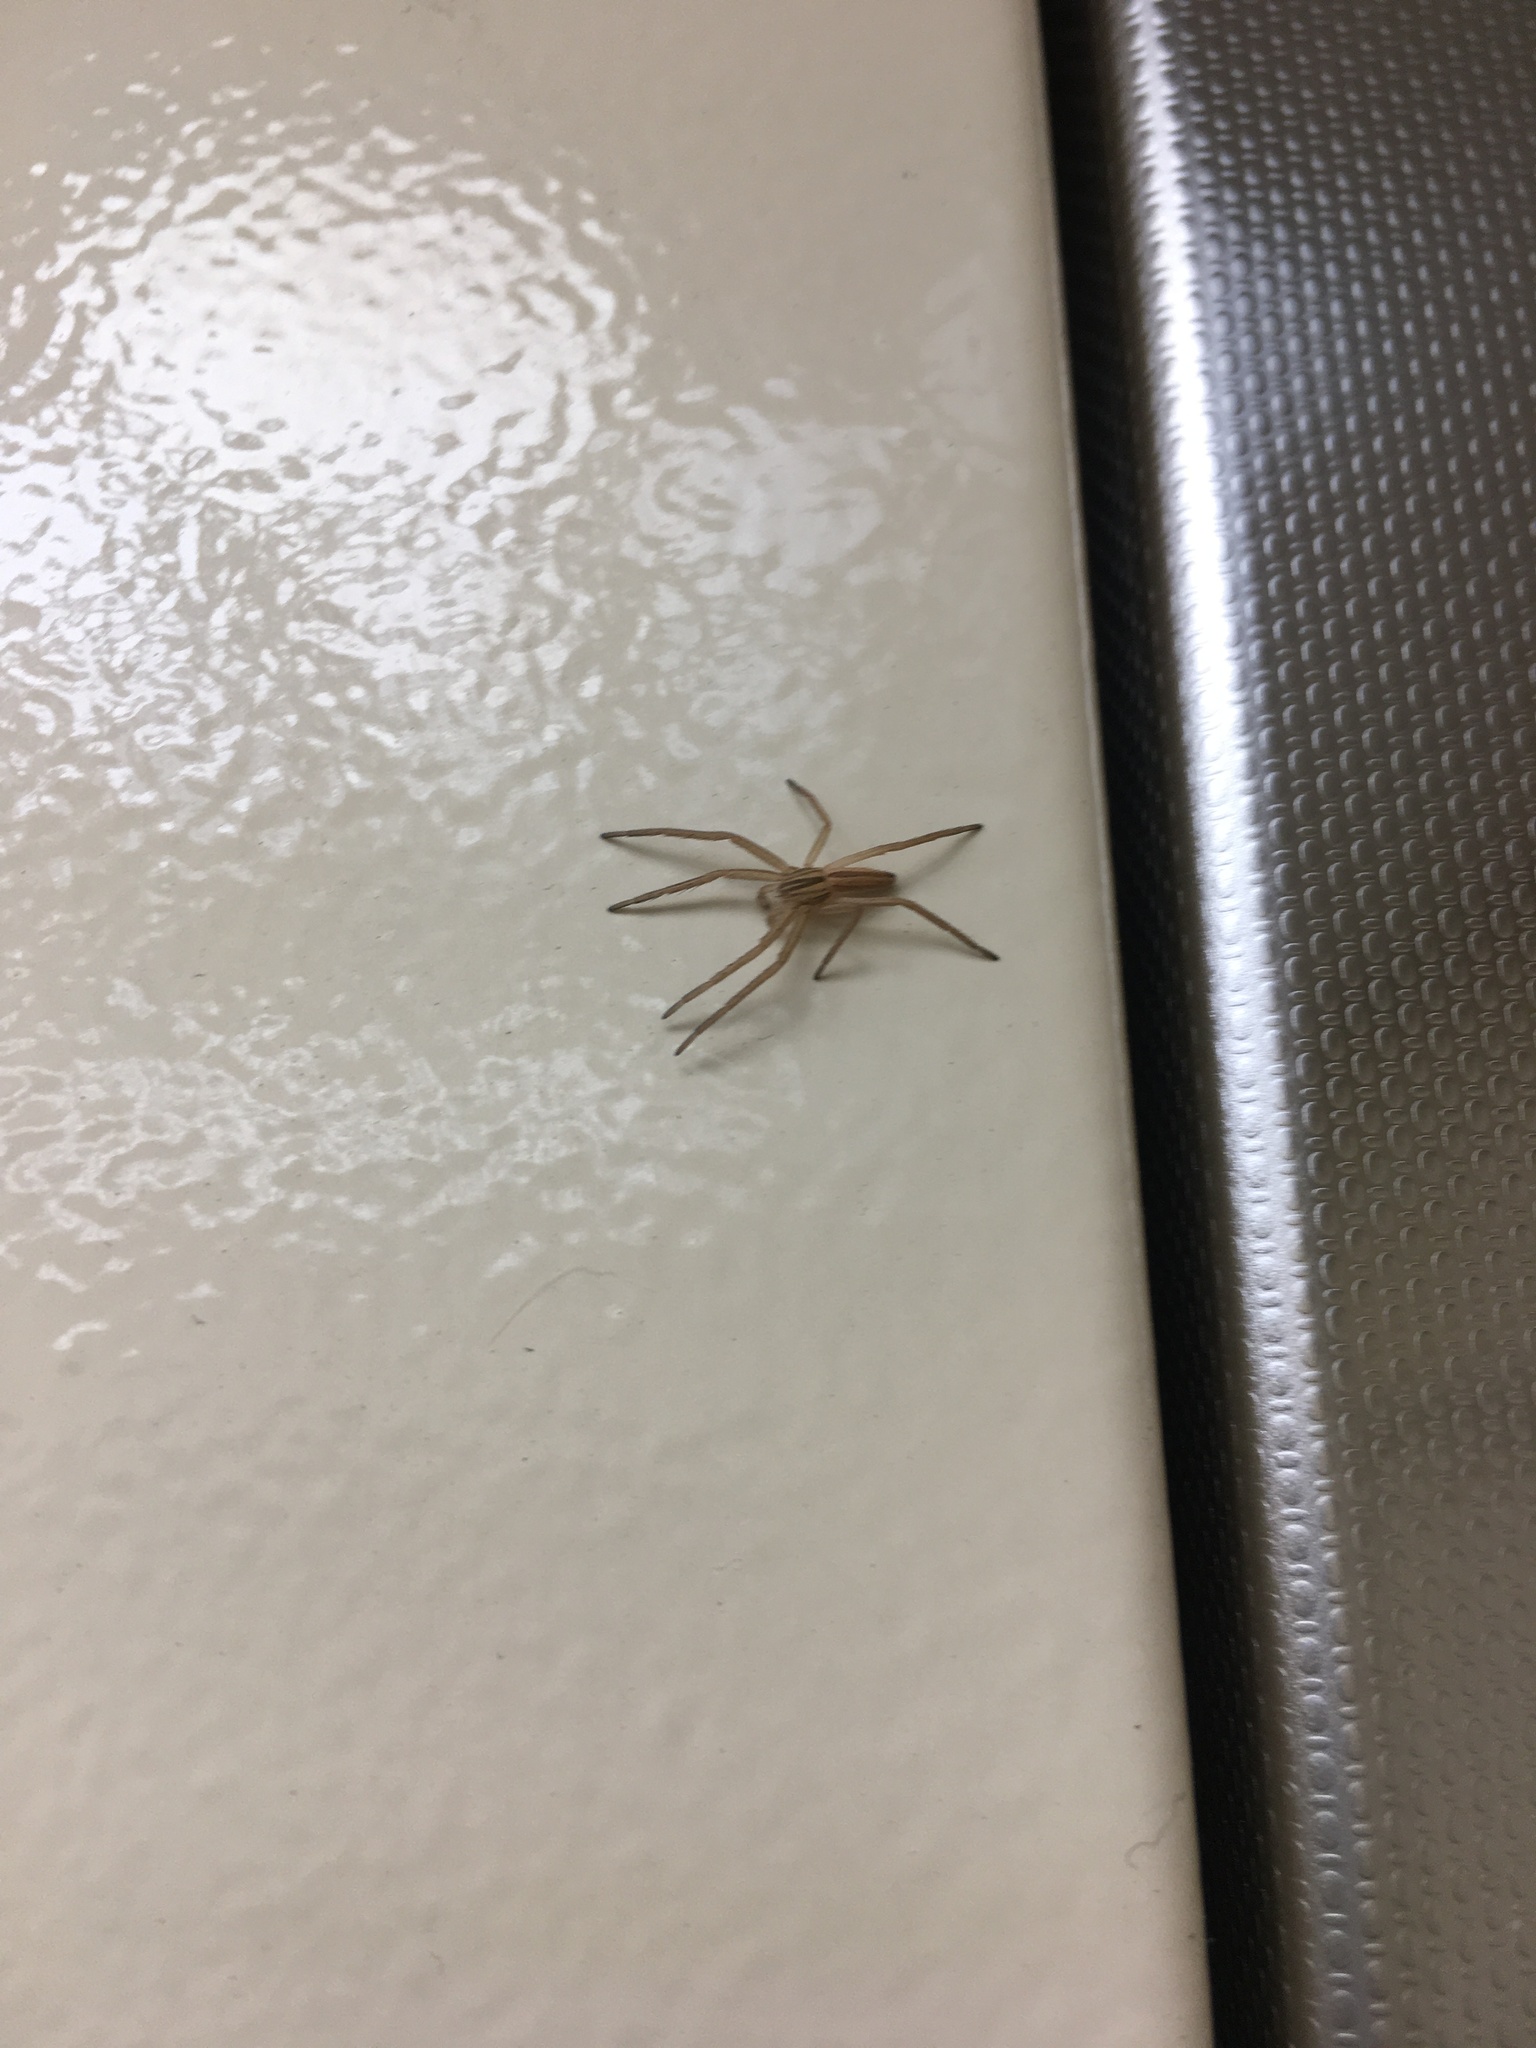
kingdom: Animalia
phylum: Arthropoda
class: Arachnida
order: Araneae
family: Philodromidae
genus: Tibellus
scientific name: Tibellus
